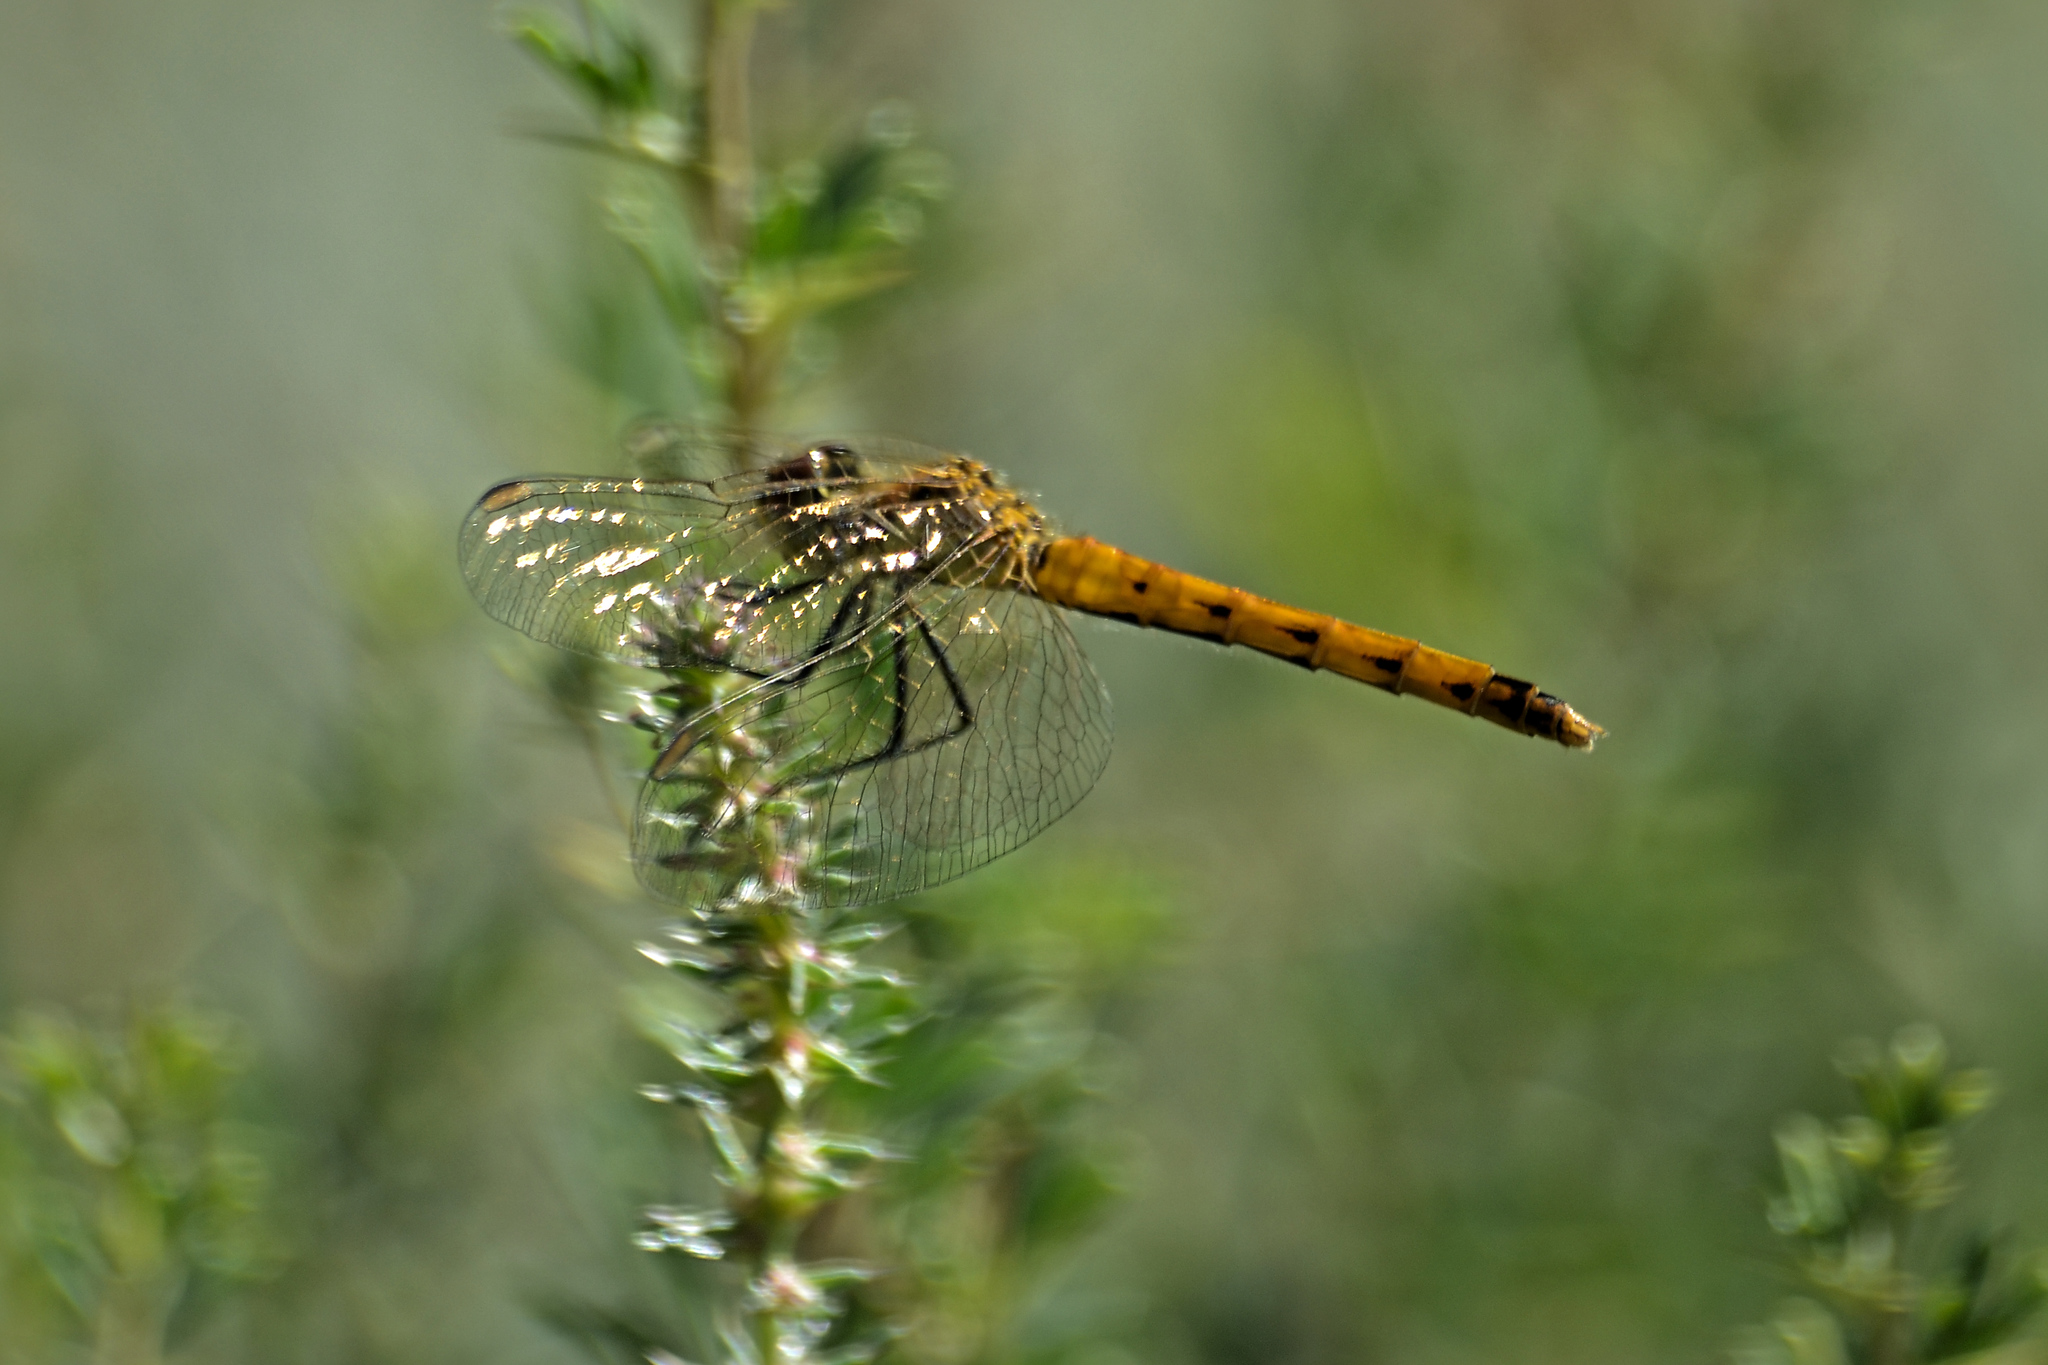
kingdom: Animalia
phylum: Arthropoda
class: Insecta
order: Odonata
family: Libellulidae
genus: Sympetrum
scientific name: Sympetrum depressiusculum
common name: Spotted darter
